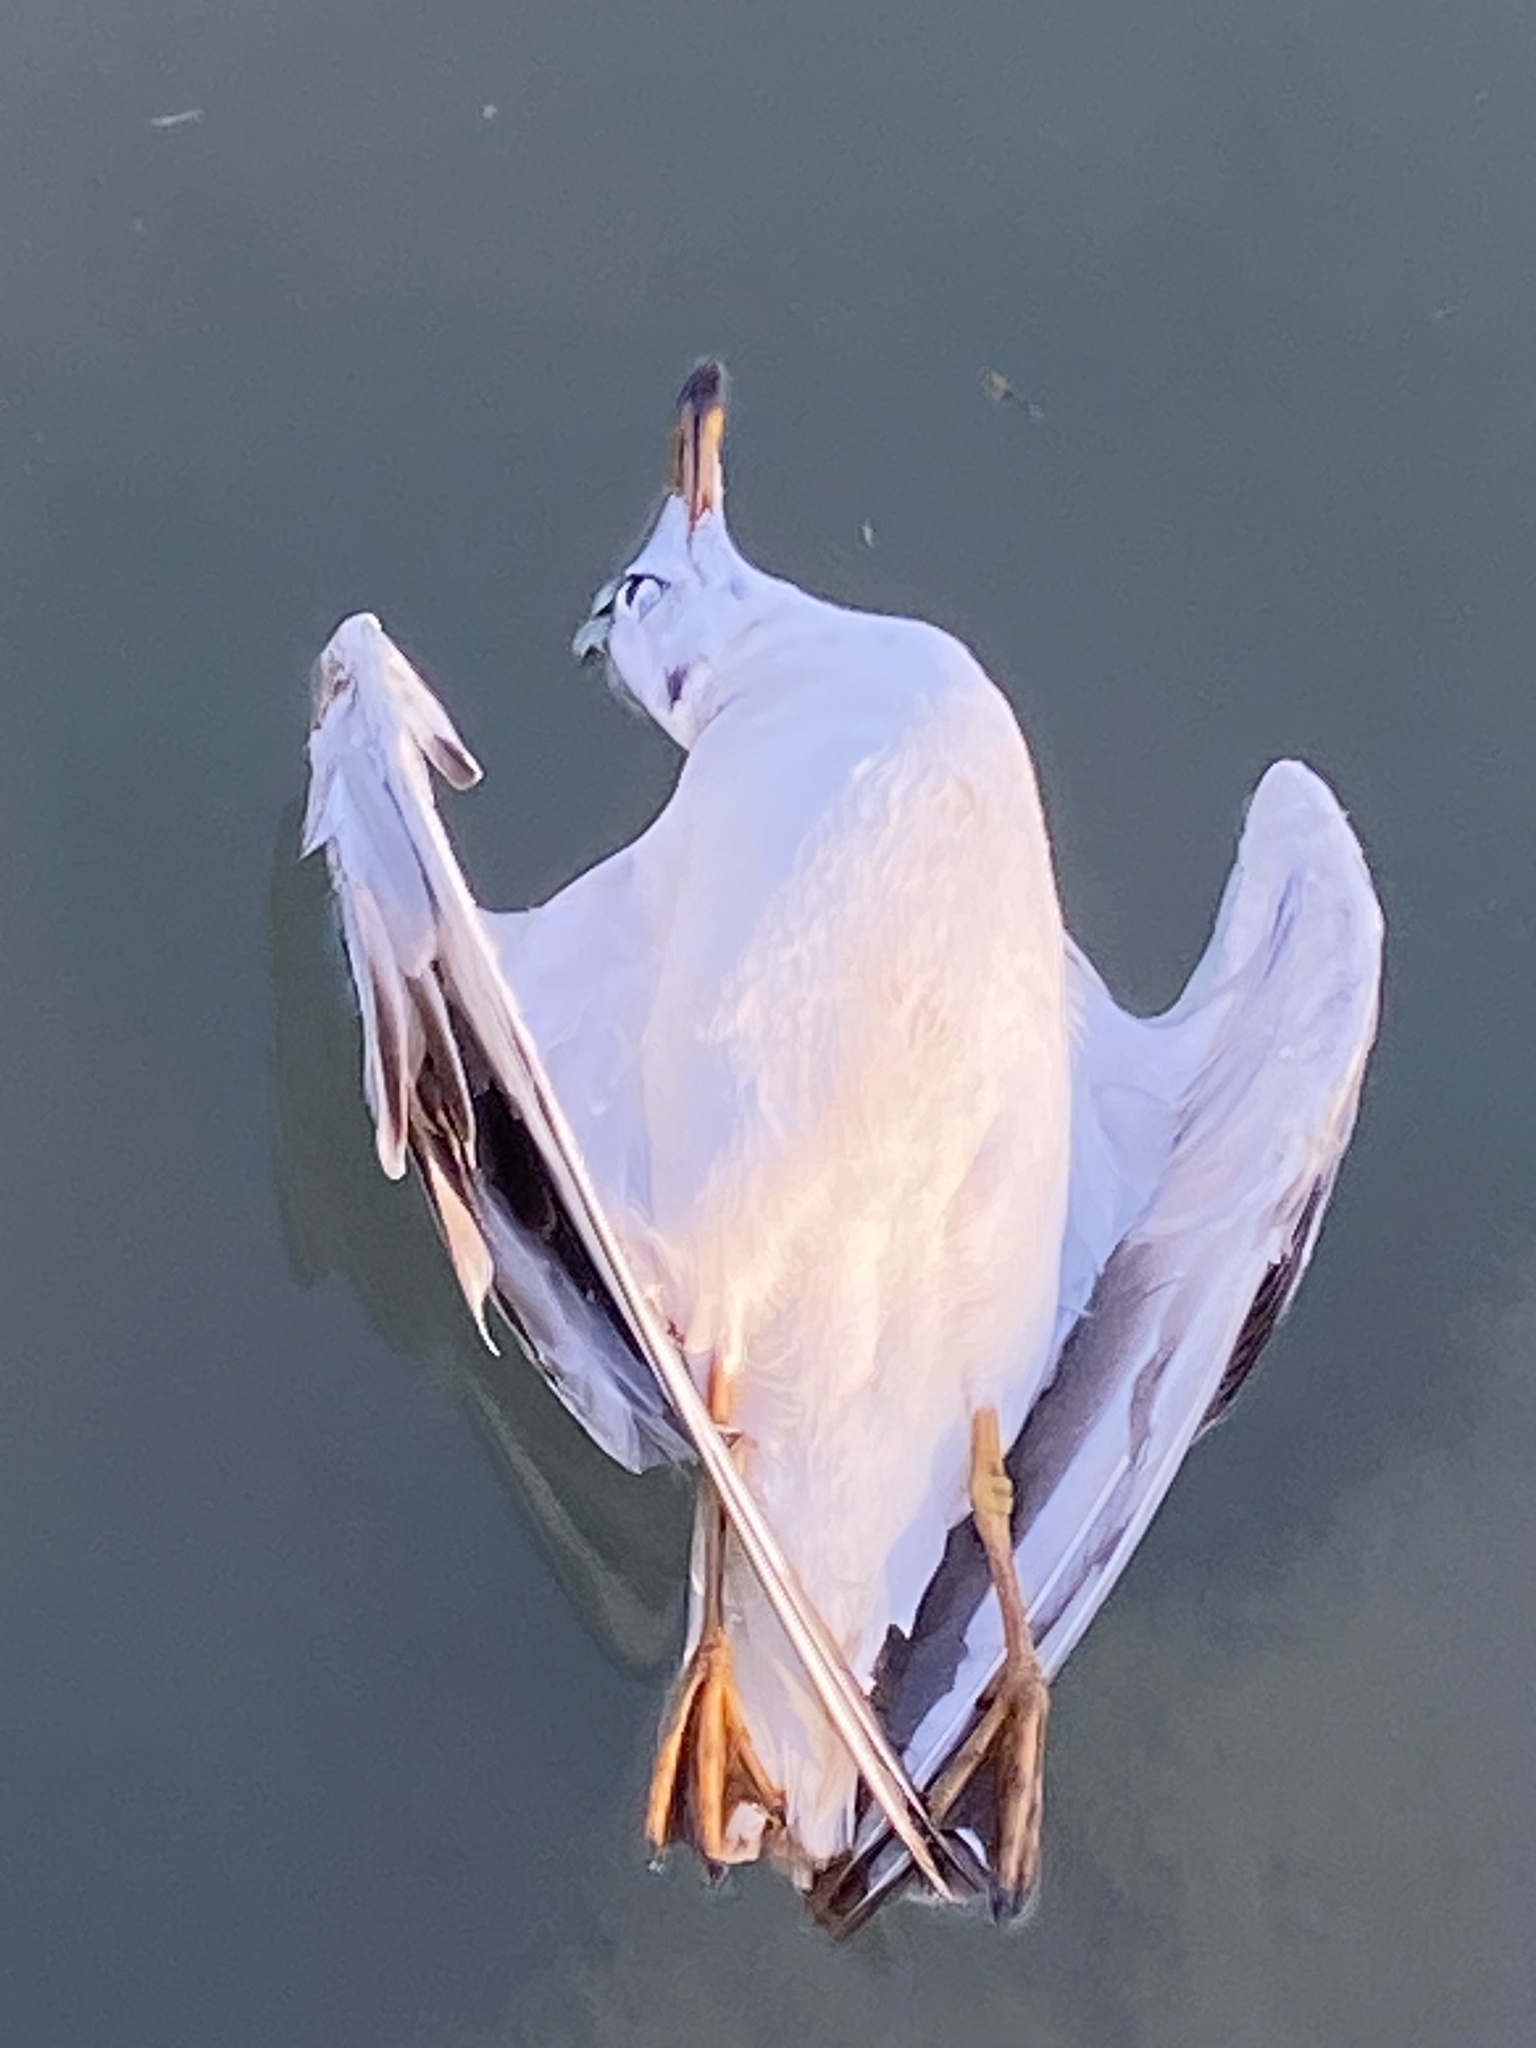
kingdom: Animalia
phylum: Chordata
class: Aves
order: Charadriiformes
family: Laridae
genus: Chroicocephalus
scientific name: Chroicocephalus ridibundus
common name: Black-headed gull
